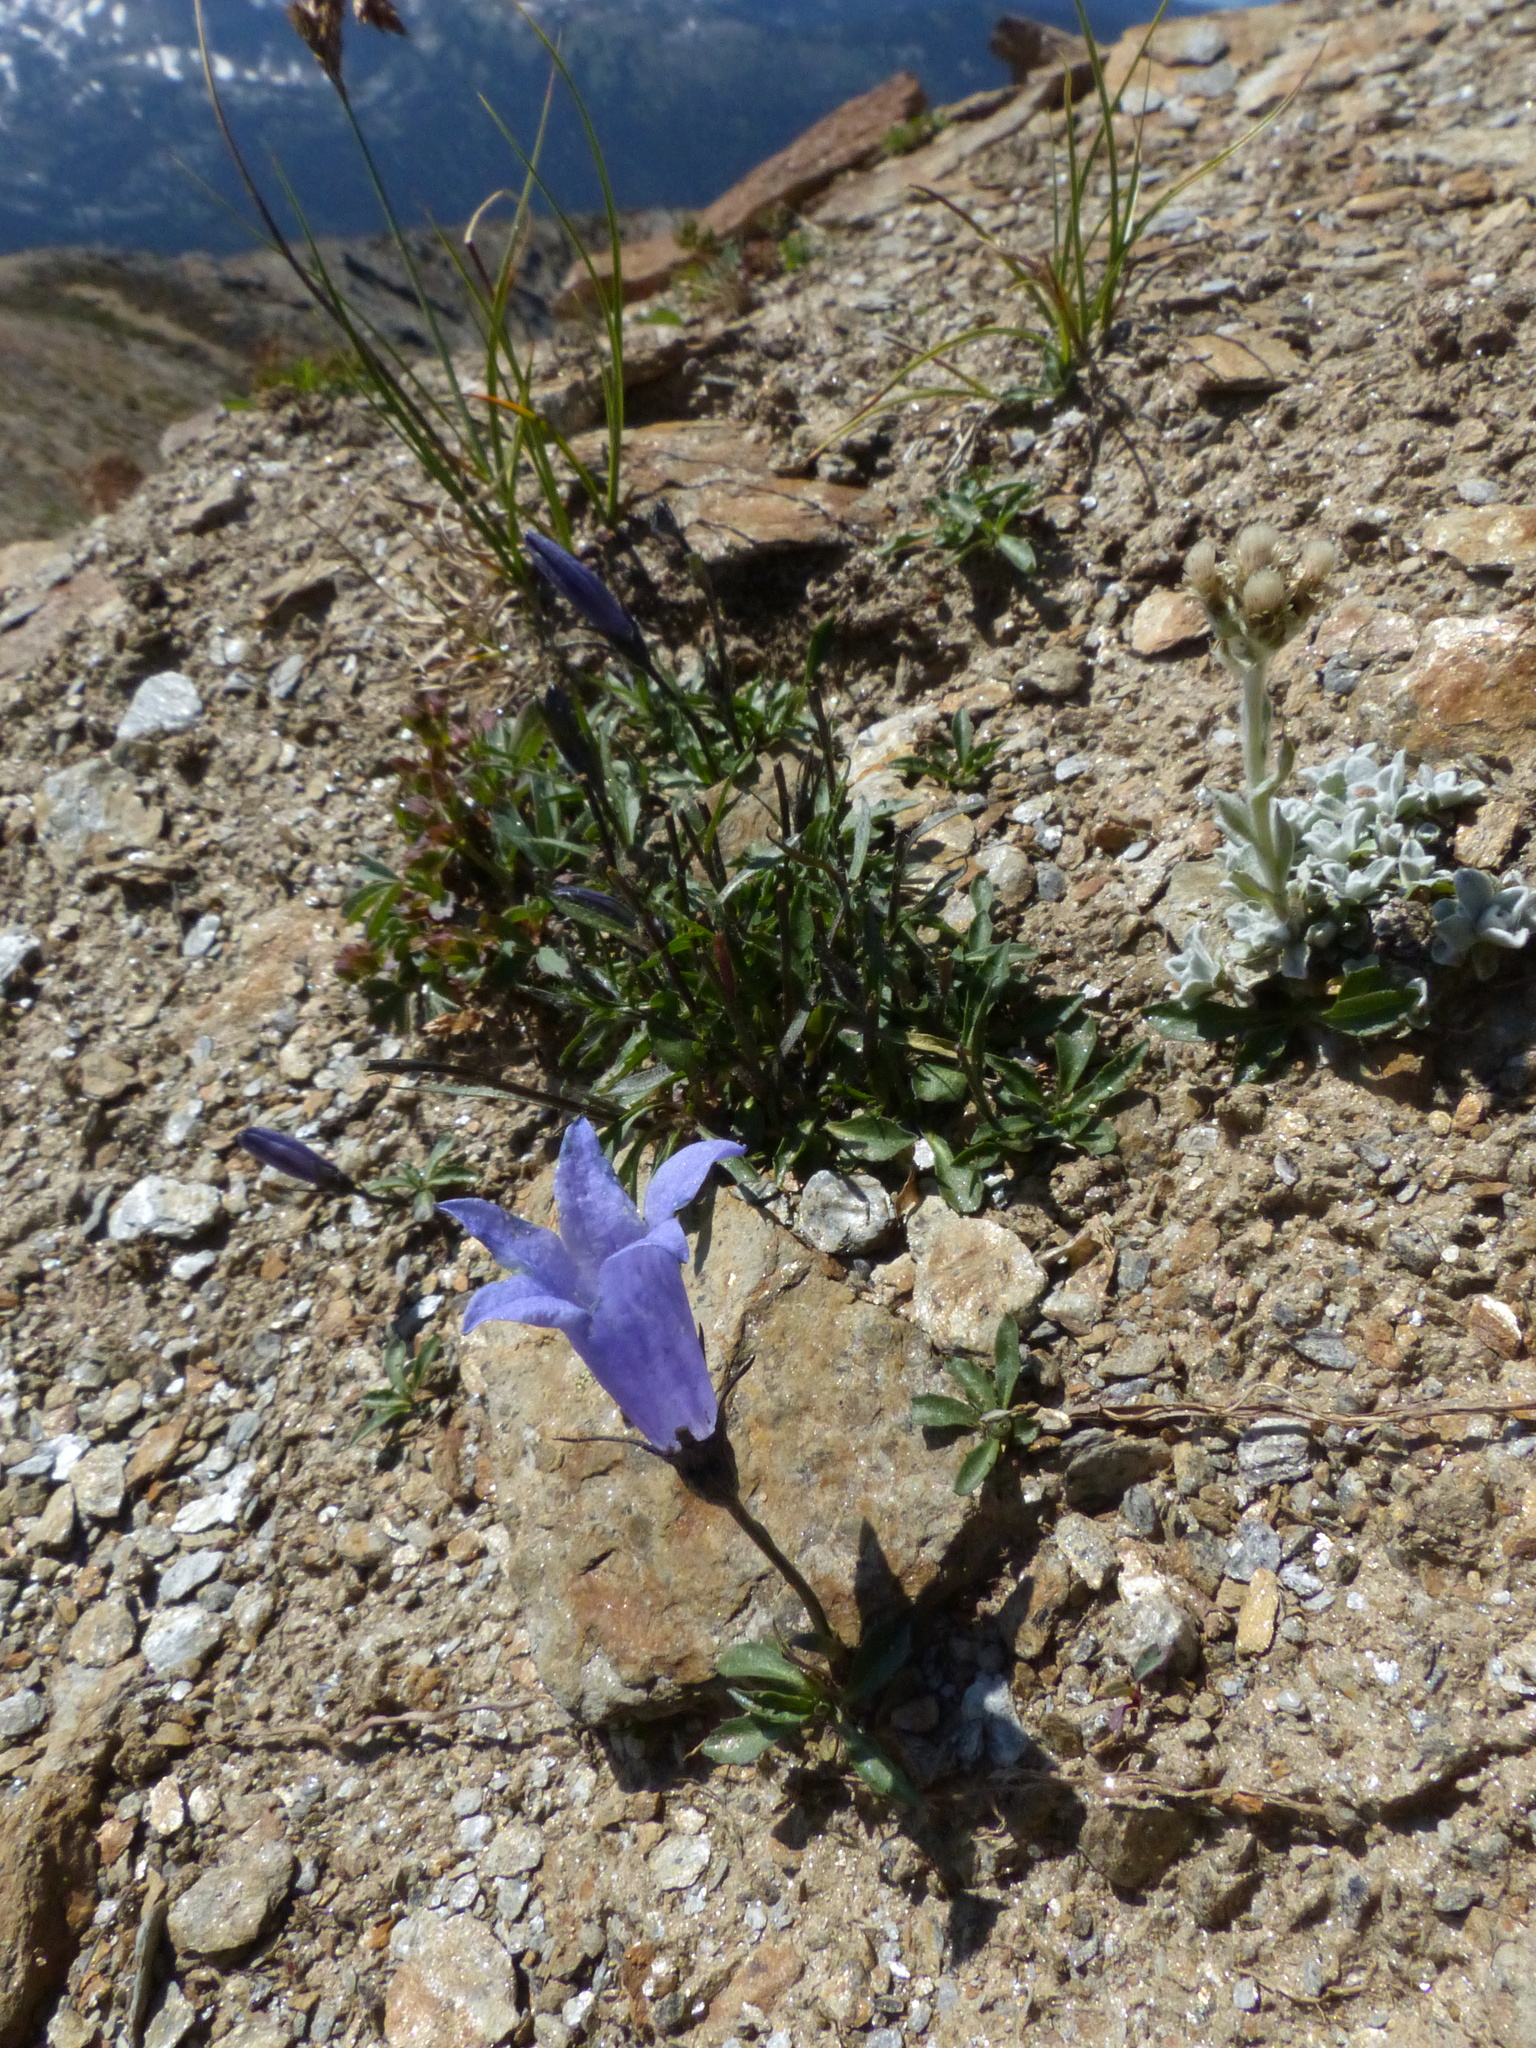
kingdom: Plantae
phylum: Tracheophyta
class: Magnoliopsida
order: Asterales
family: Campanulaceae
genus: Campanula
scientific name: Campanula lasiocarpa
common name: Mountain harebell
